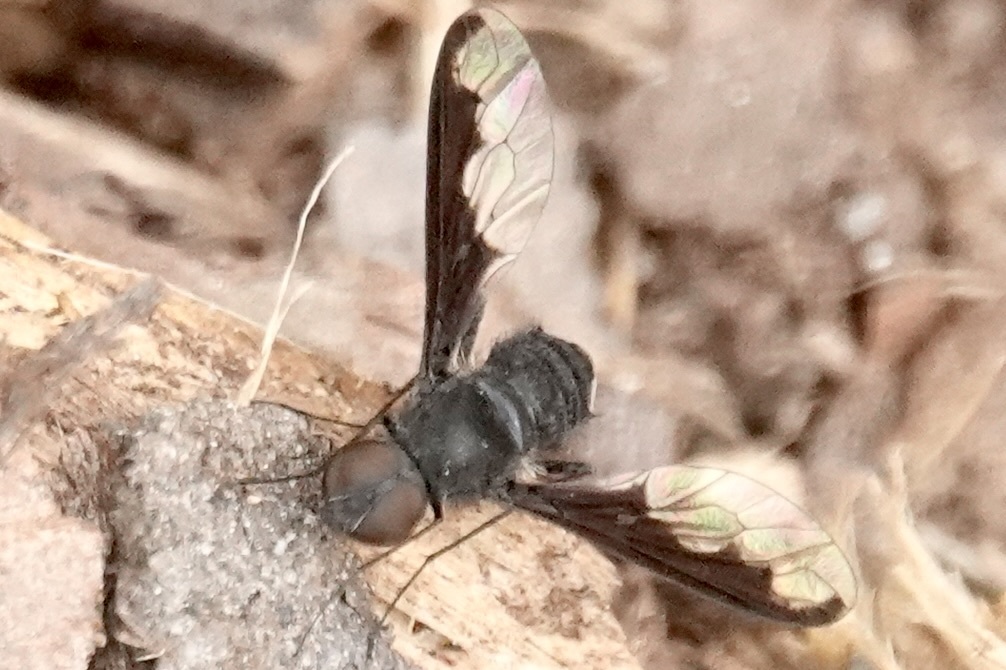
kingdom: Animalia
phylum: Arthropoda
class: Insecta
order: Diptera
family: Bombyliidae
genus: Anthrax
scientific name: Anthrax argyropygus
